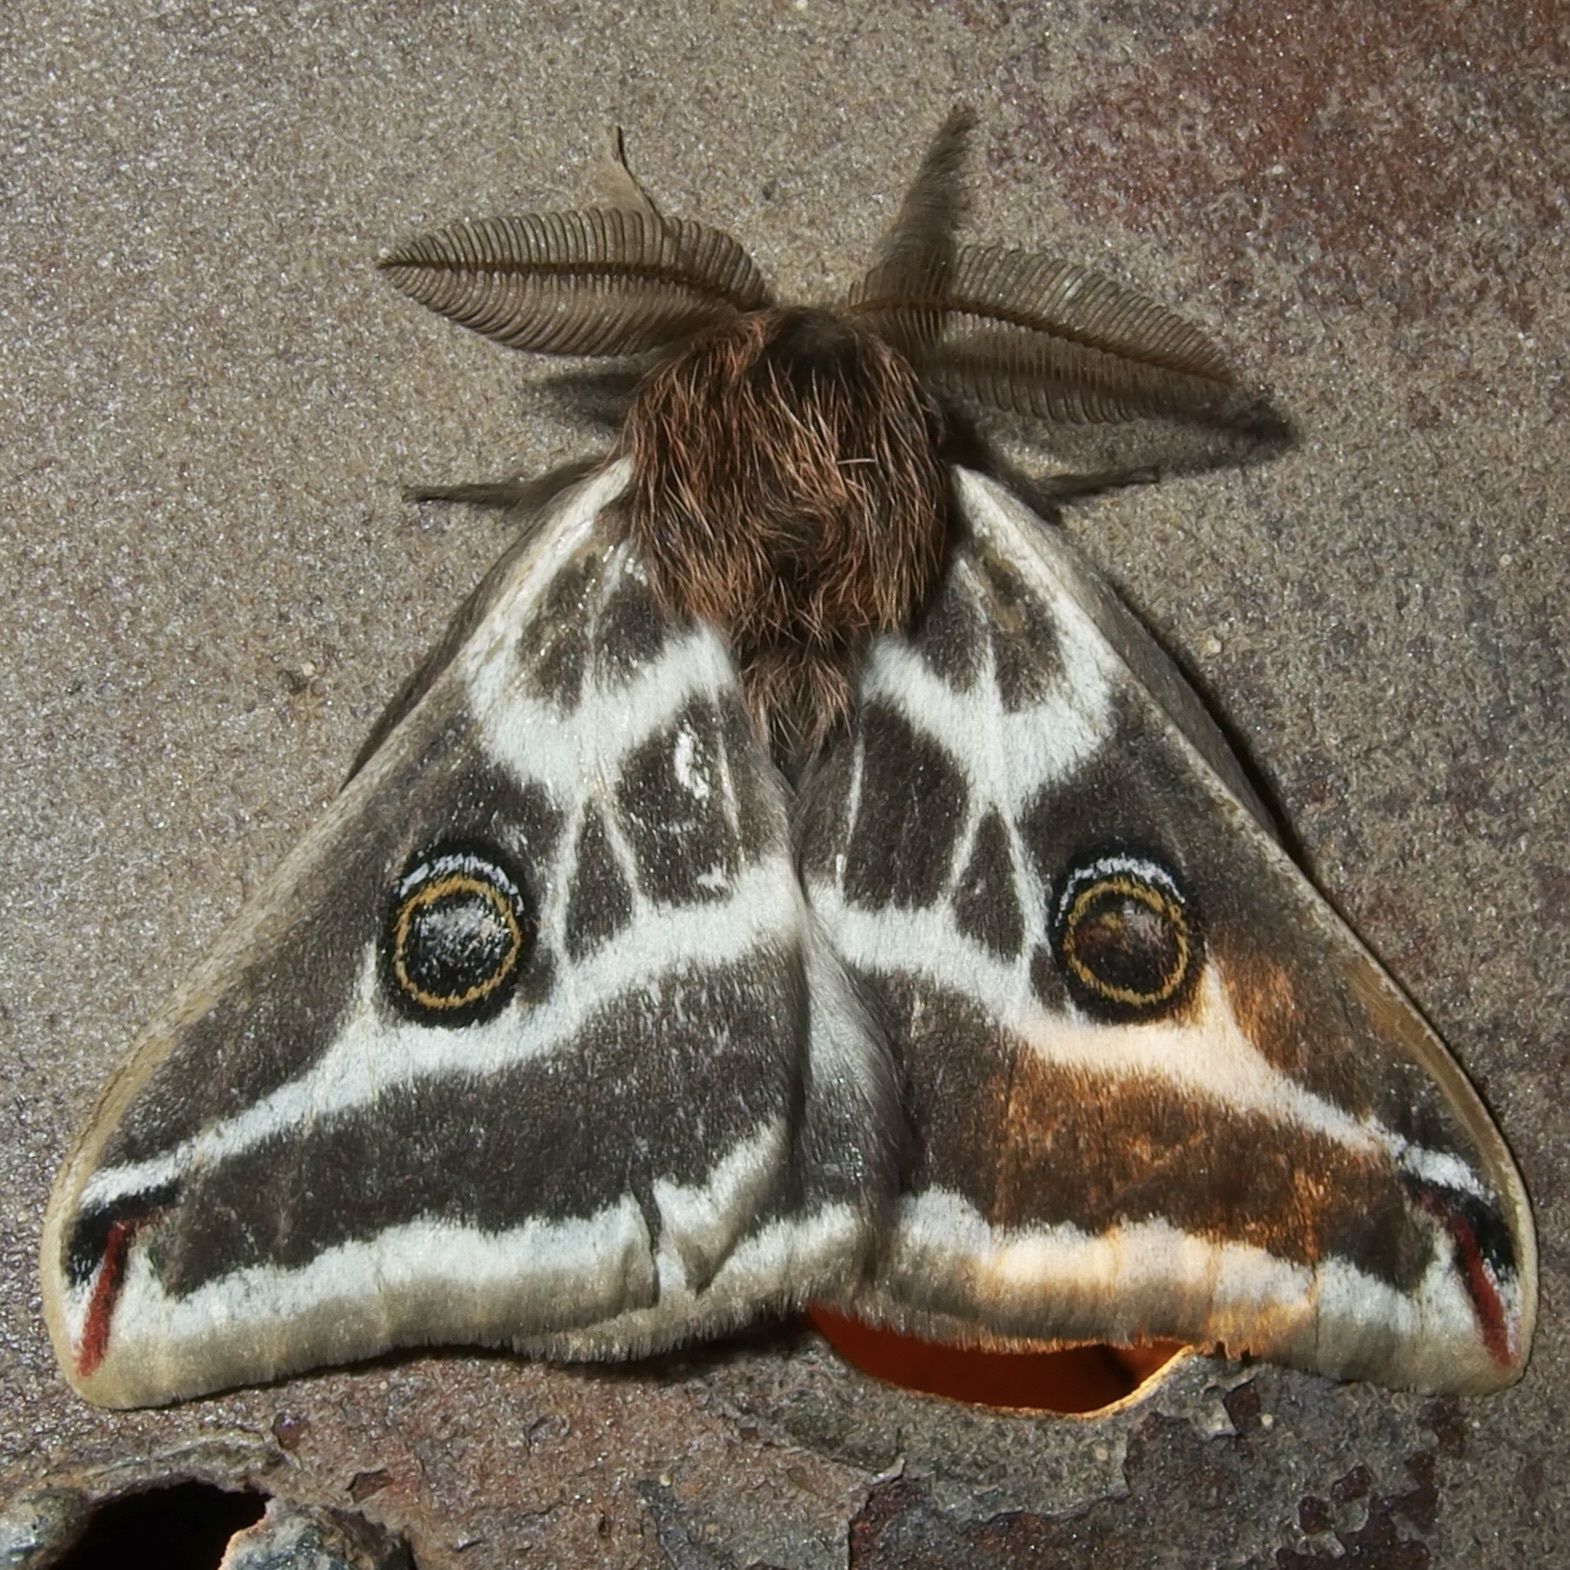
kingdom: Animalia
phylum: Arthropoda
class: Insecta
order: Lepidoptera
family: Saturniidae
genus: Saturnia
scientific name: Saturnia anona
